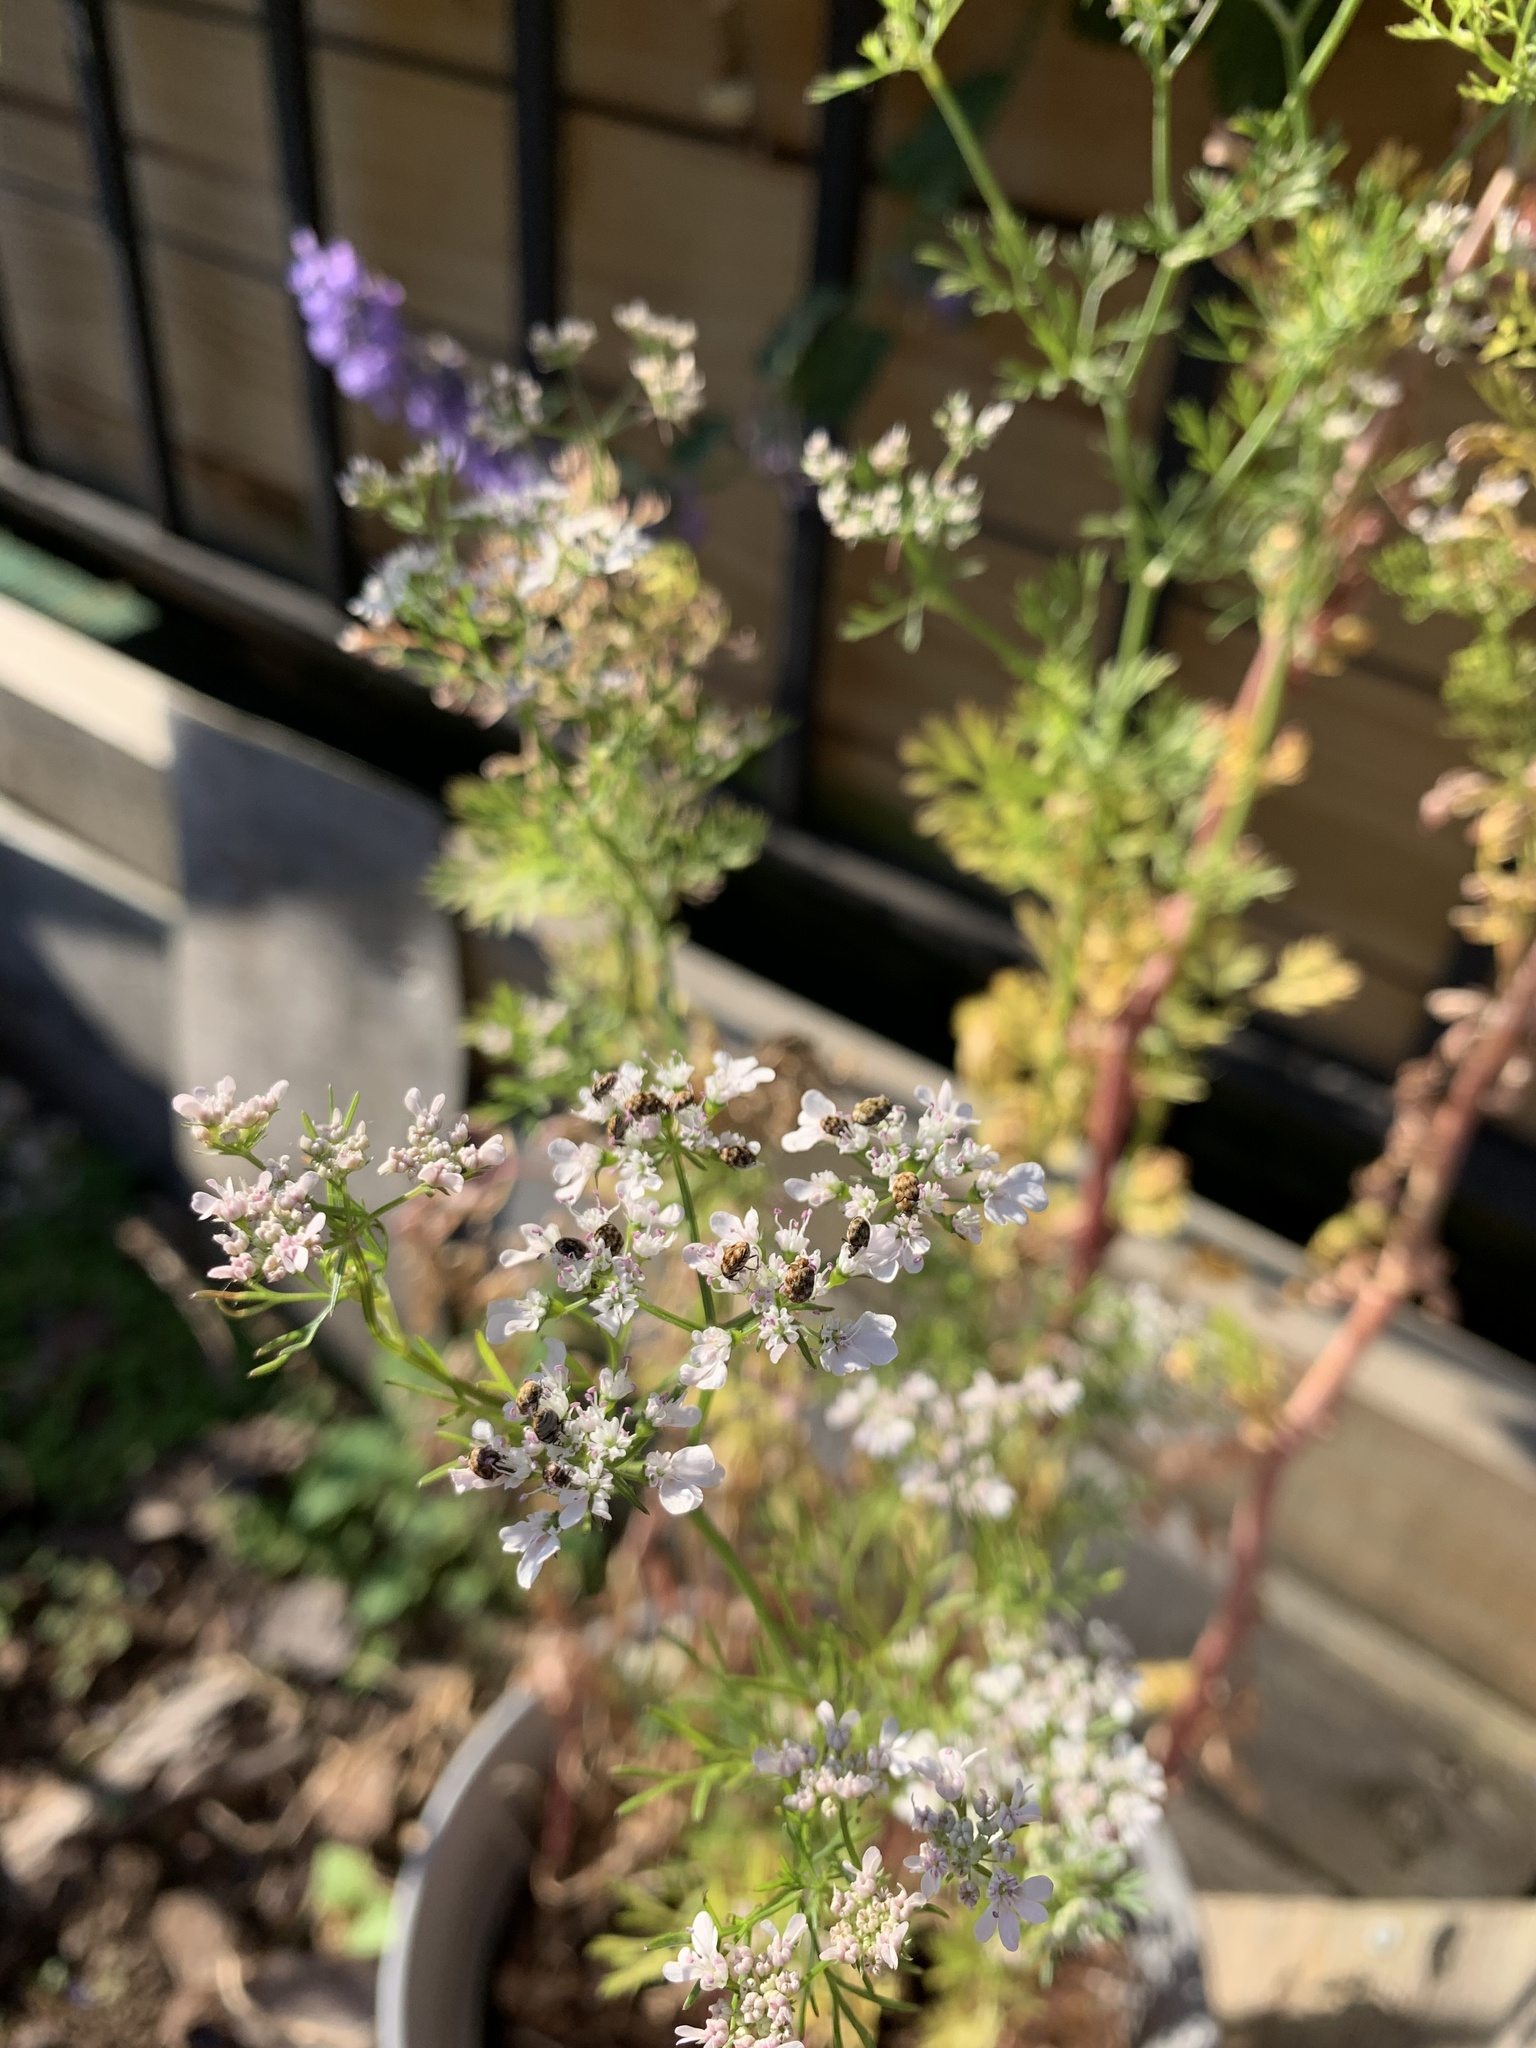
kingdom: Animalia
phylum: Arthropoda
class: Insecta
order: Coleoptera
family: Dermestidae
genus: Anthrenus
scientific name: Anthrenus verbasci
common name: Varied carpet beetle
